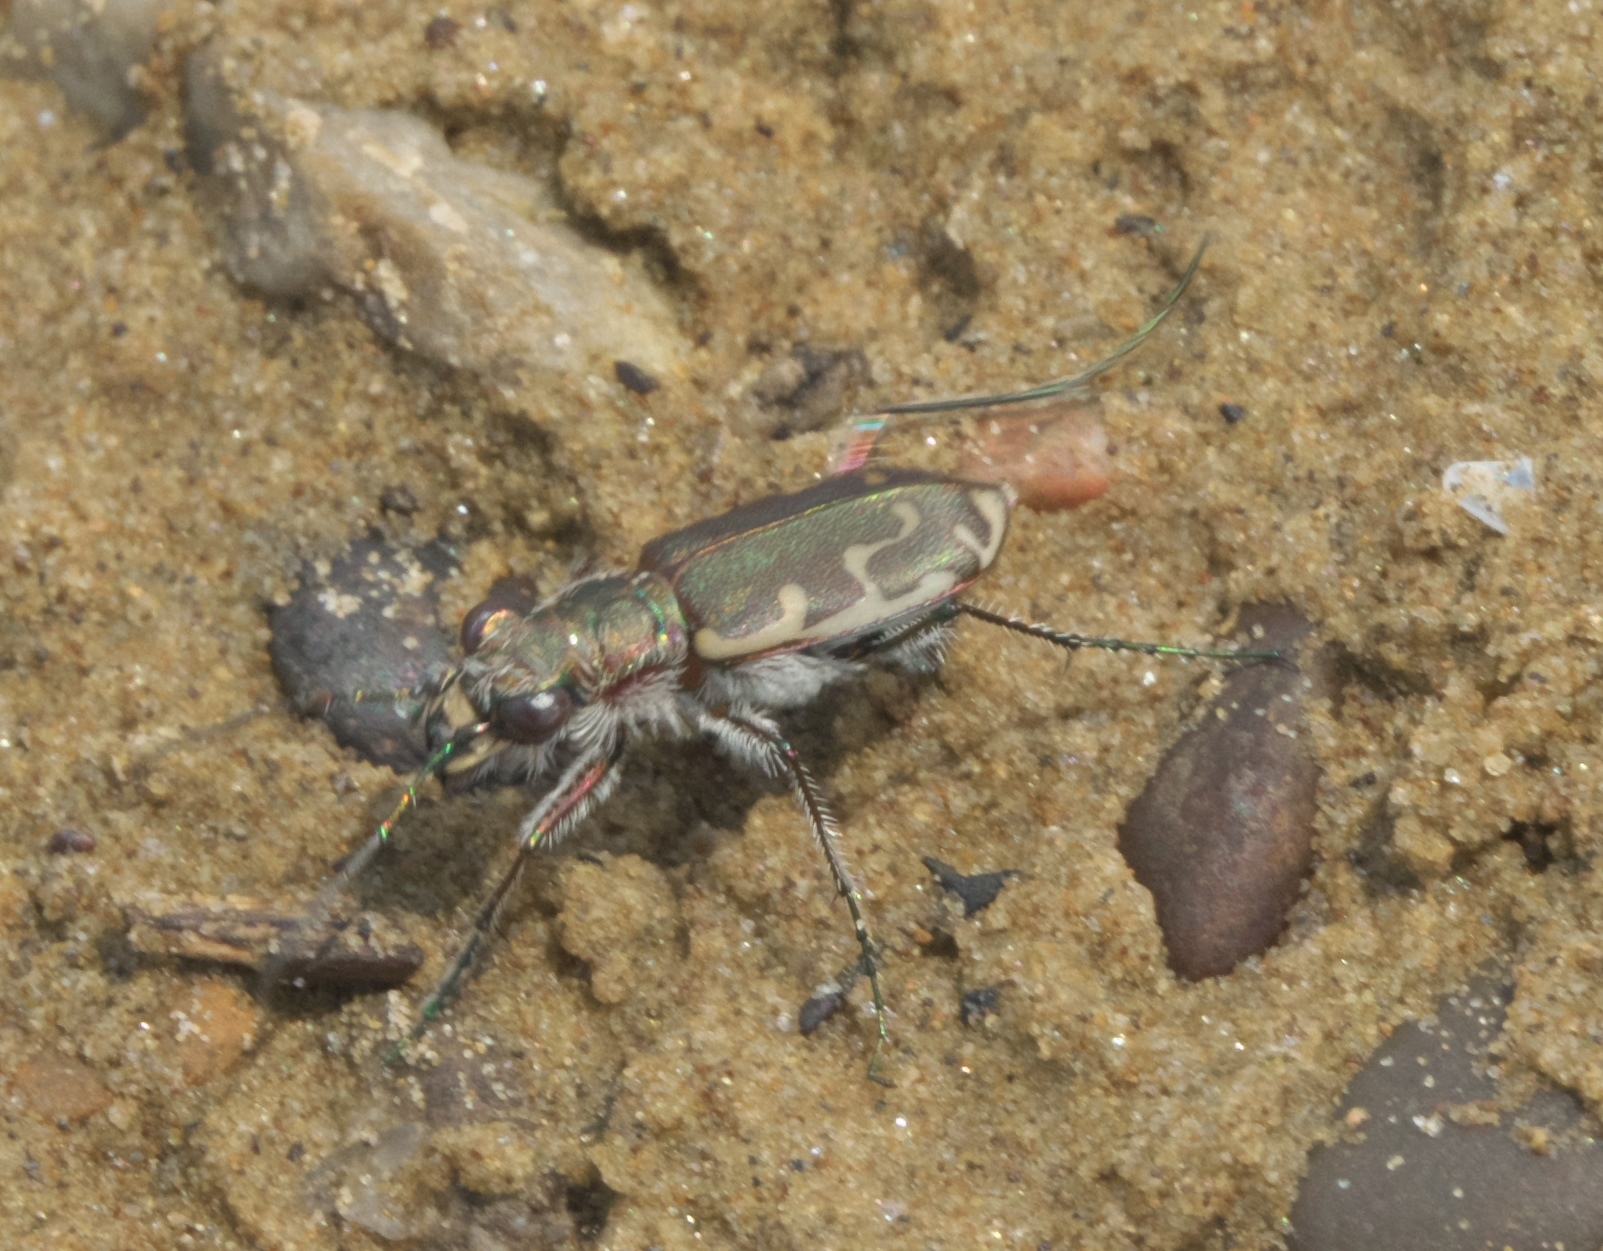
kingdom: Animalia
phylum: Arthropoda
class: Insecta
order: Coleoptera
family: Carabidae
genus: Cicindela
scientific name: Cicindela repanda
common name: Bronzed tiger beetle
